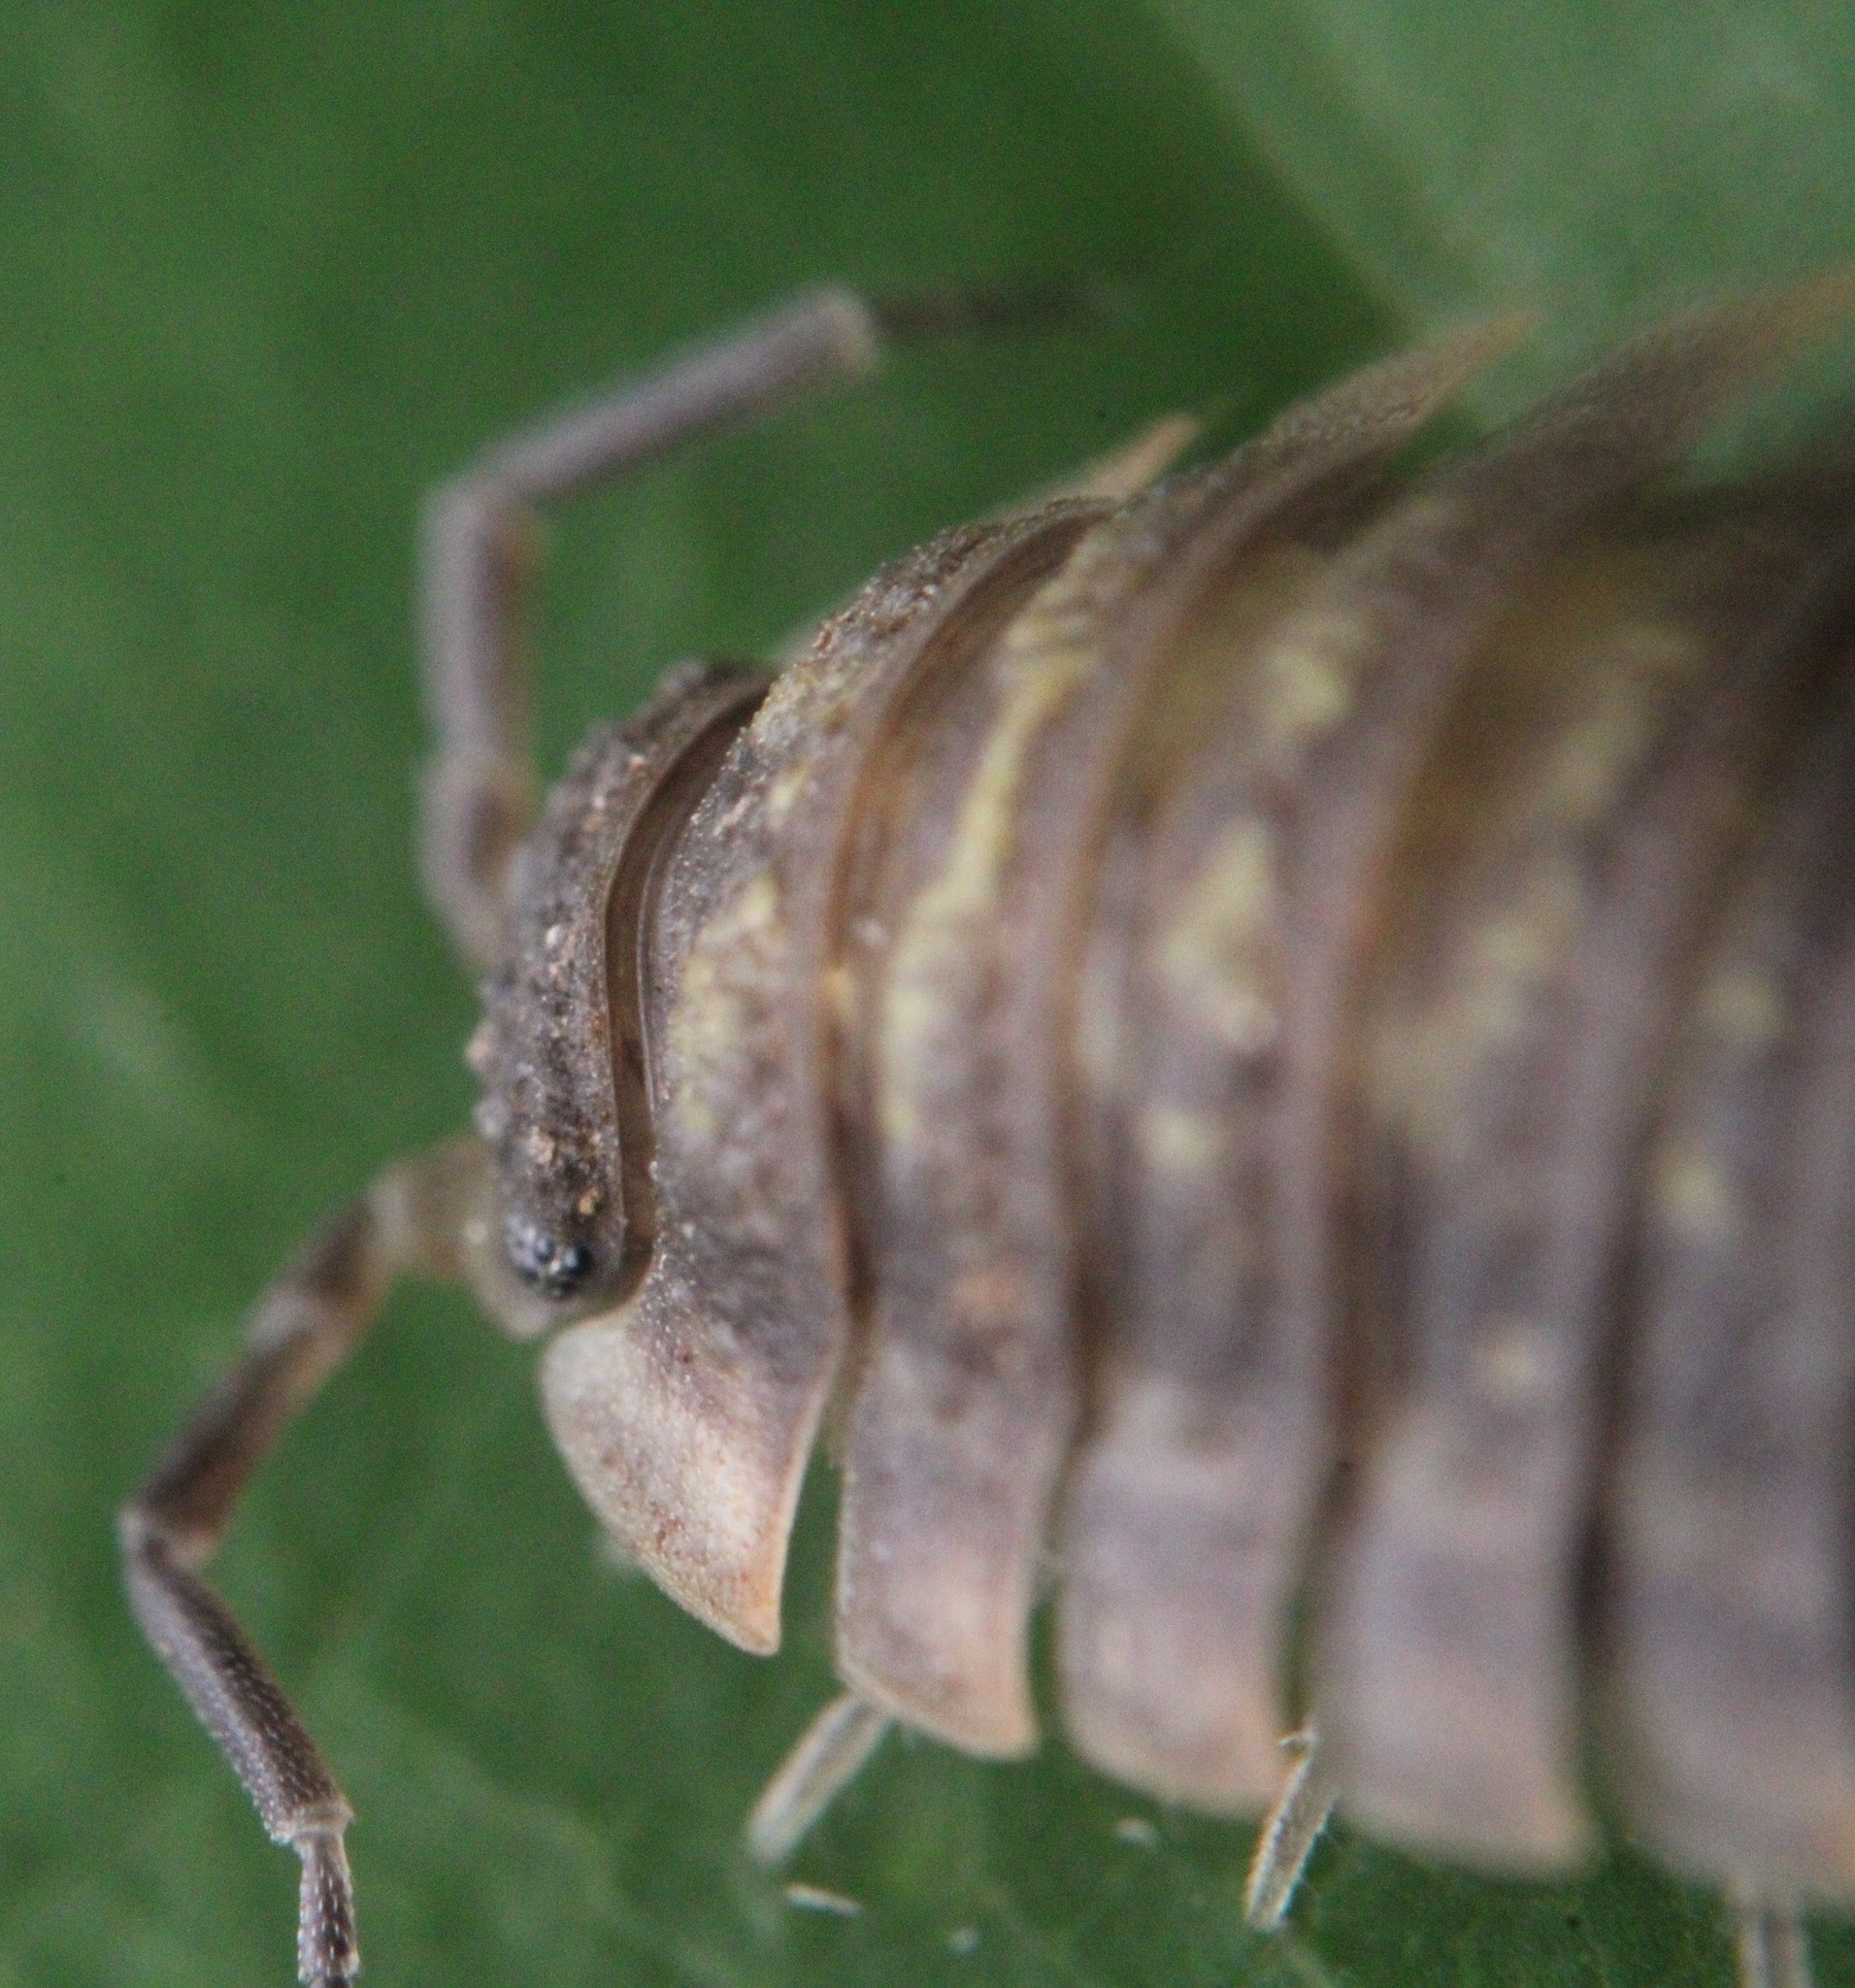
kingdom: Animalia
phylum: Arthropoda
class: Malacostraca
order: Isopoda
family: Oniscidae
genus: Oniscus
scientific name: Oniscus asellus
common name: Common shiny woodlouse
